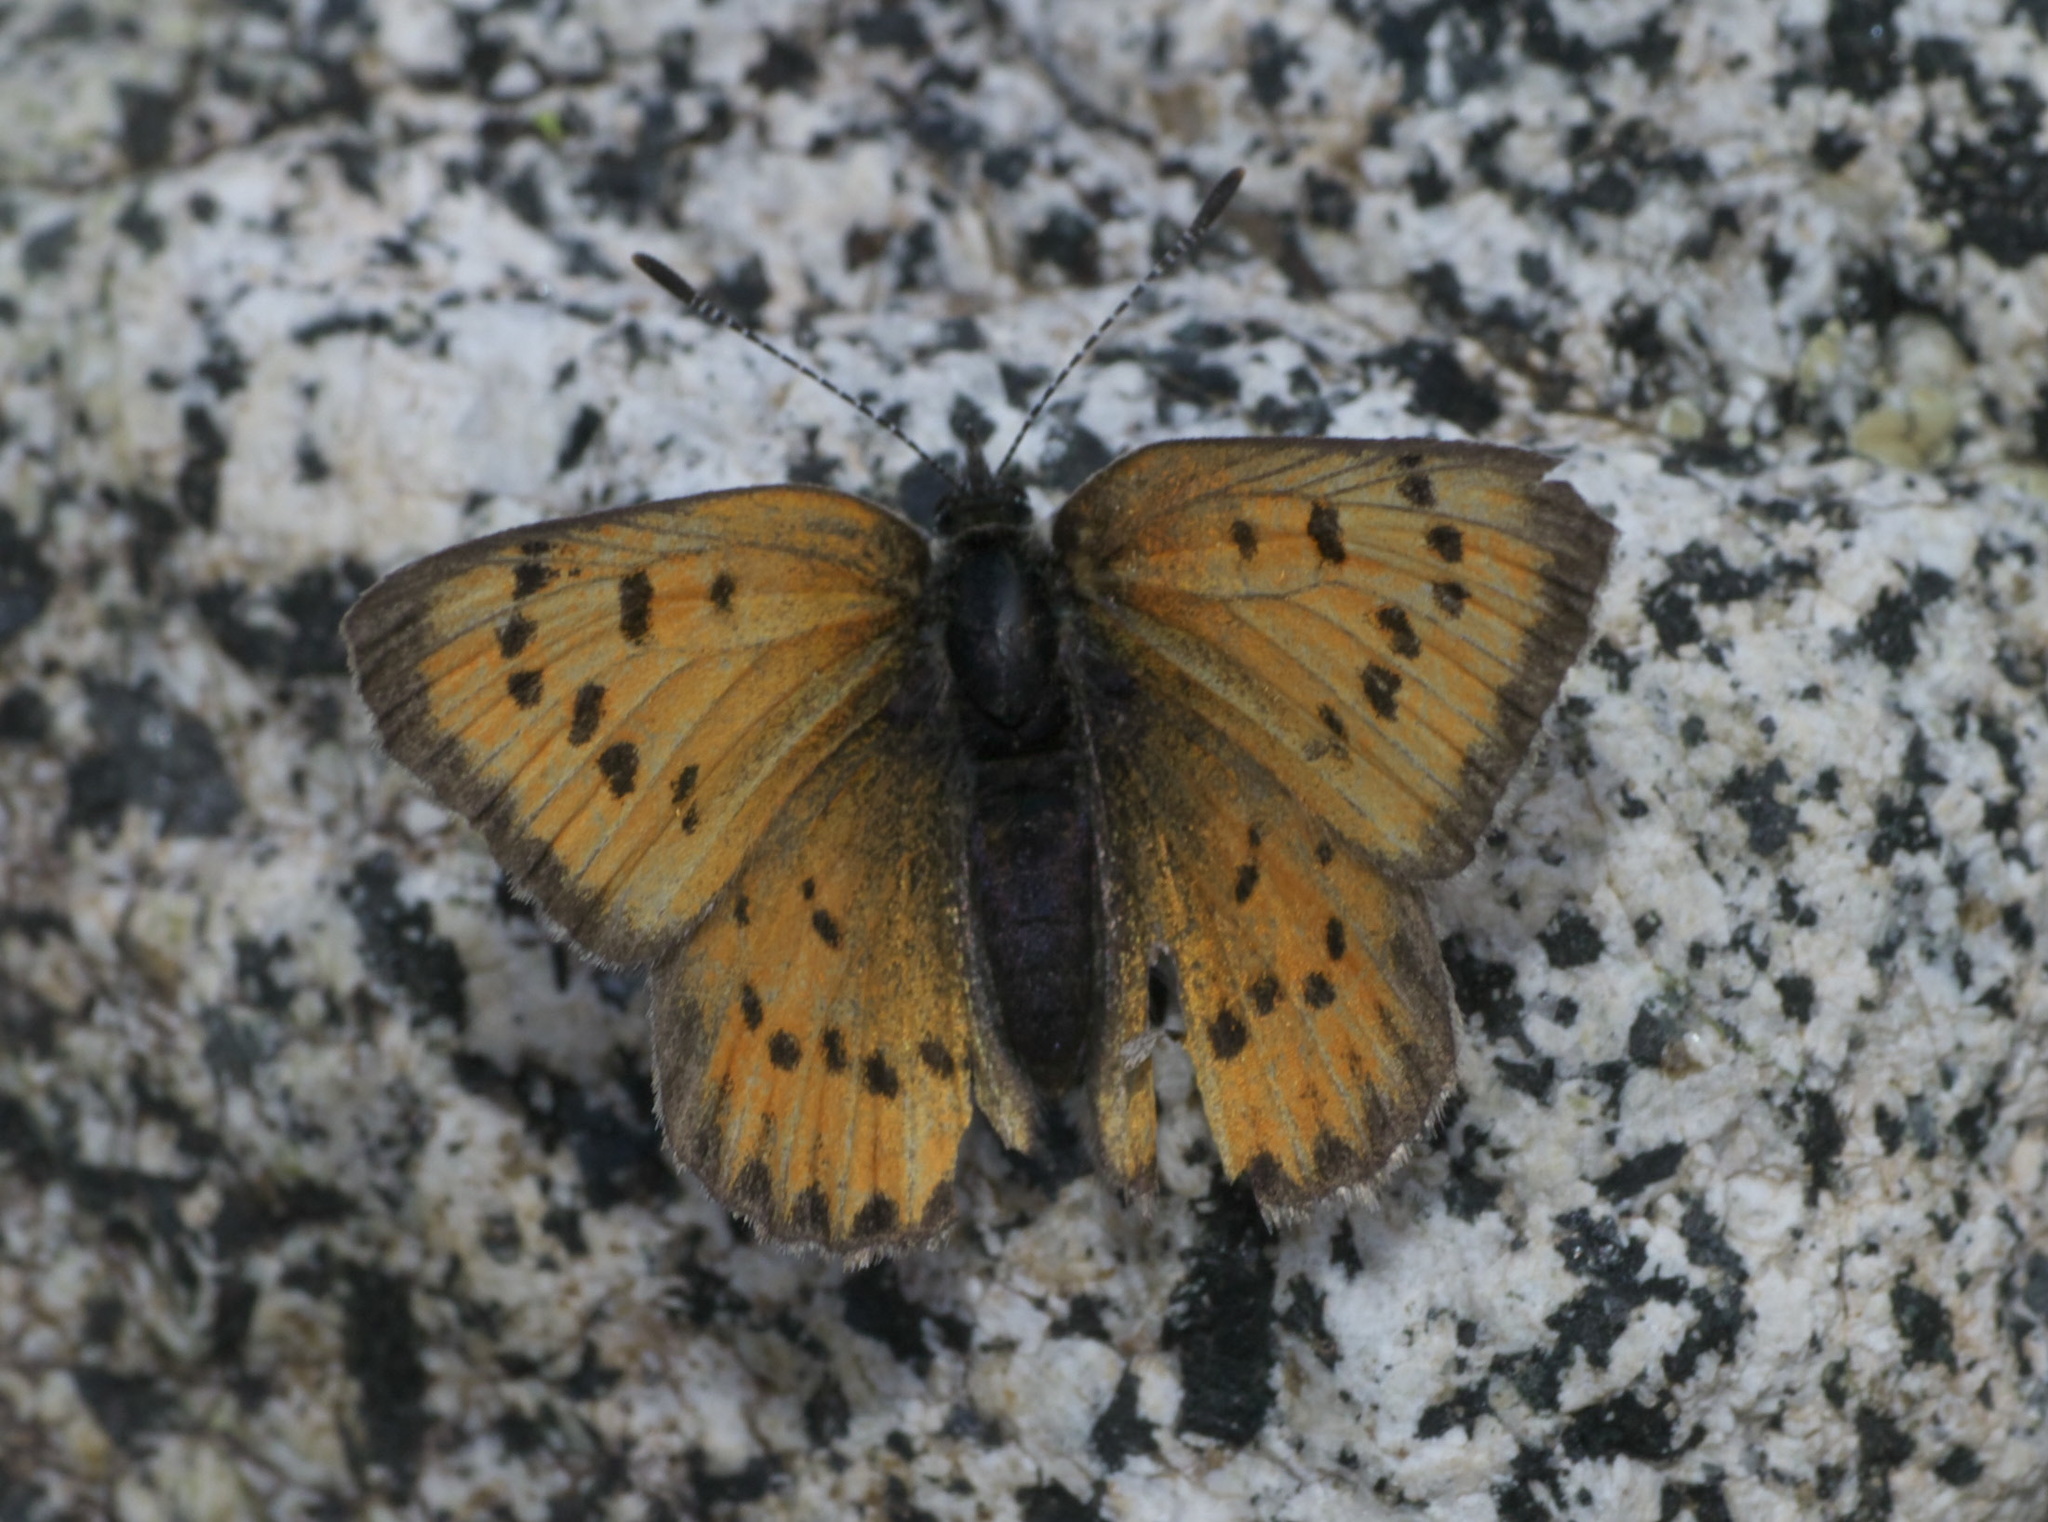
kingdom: Animalia
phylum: Arthropoda
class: Insecta
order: Lepidoptera
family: Lycaenidae
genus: Lycaena
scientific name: Lycaena cupreus
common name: Lustrous copper
